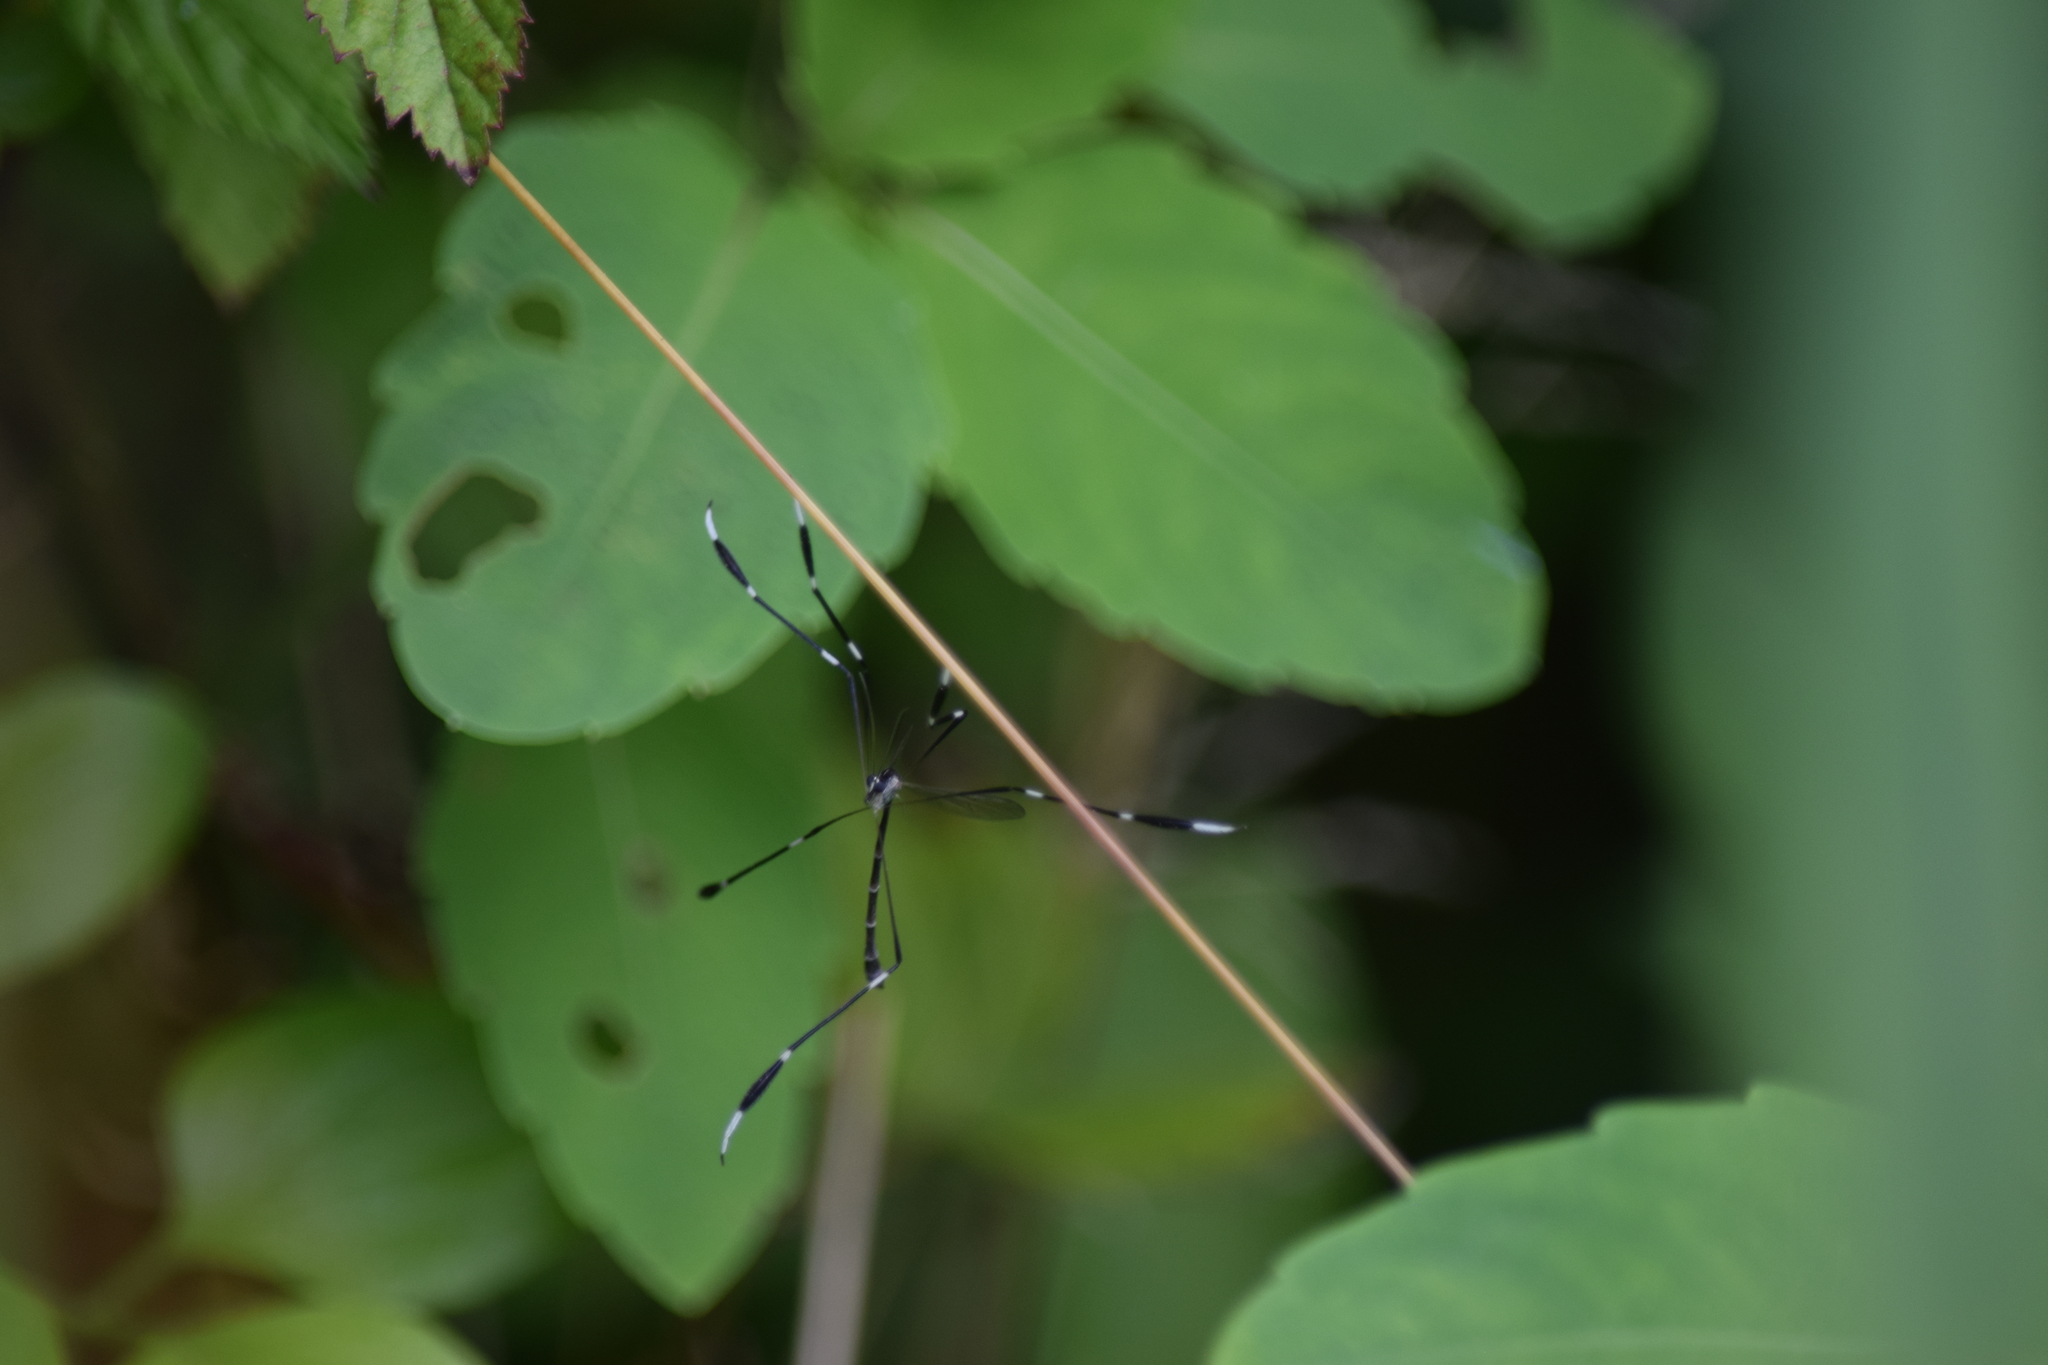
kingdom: Animalia
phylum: Arthropoda
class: Insecta
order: Diptera
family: Ptychopteridae
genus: Bittacomorpha
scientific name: Bittacomorpha clavipes
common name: Eastern phantom crane fly
